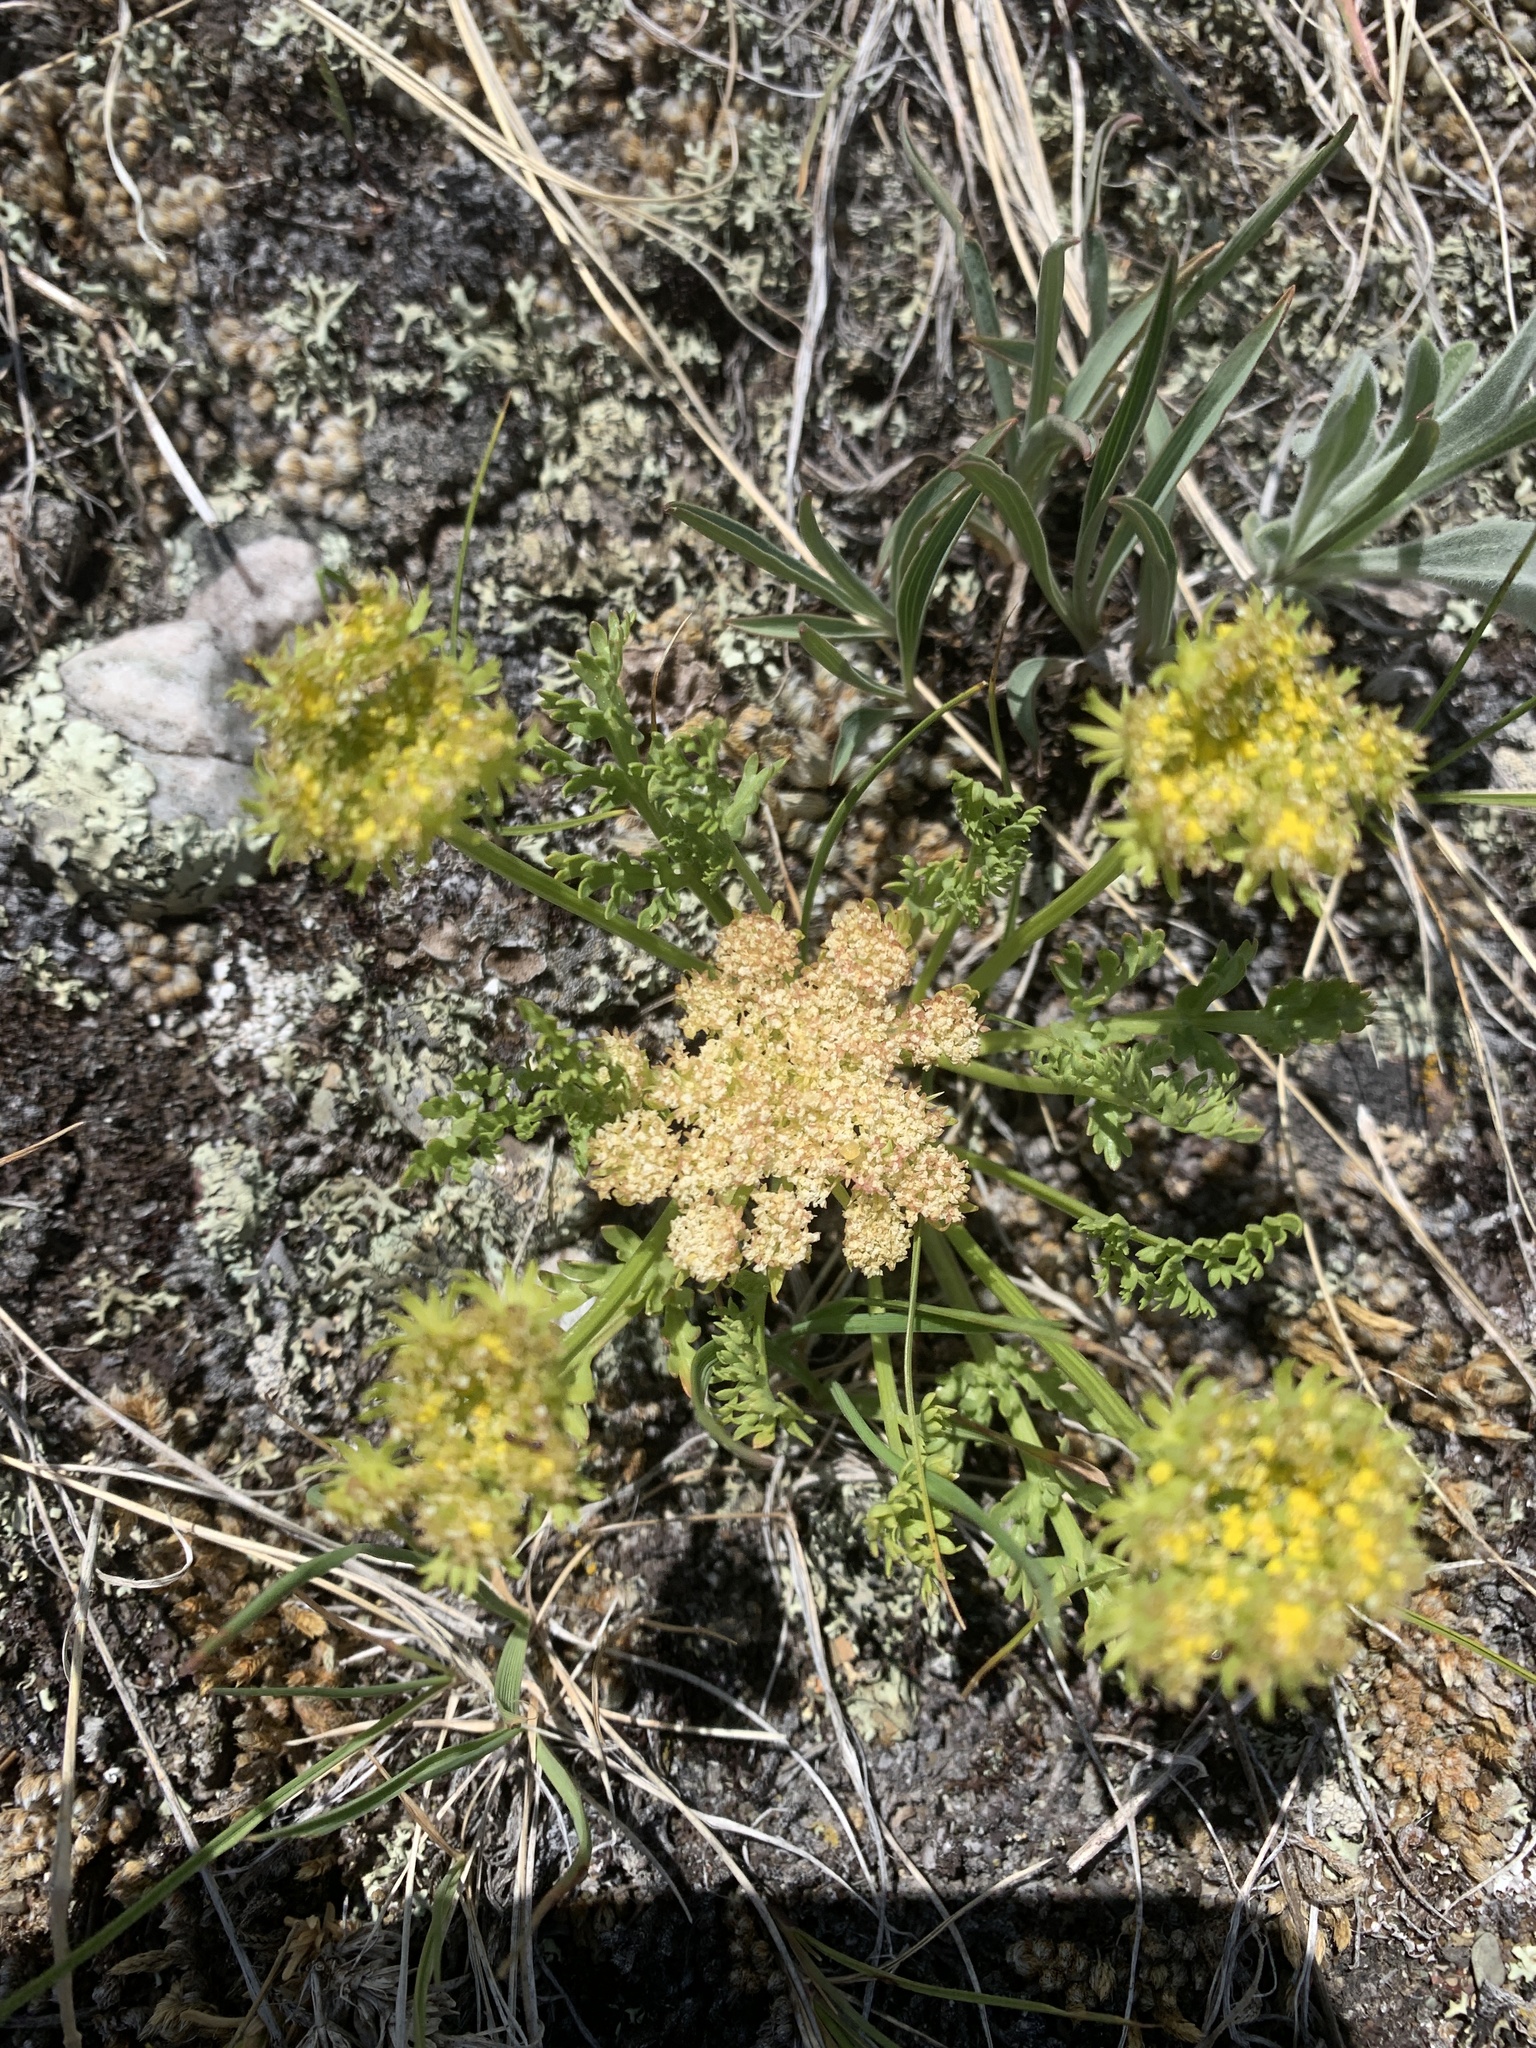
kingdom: Plantae
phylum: Tracheophyta
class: Magnoliopsida
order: Apiales
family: Apiaceae
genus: Musineon
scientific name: Musineon divaricatum
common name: Plains musineon
